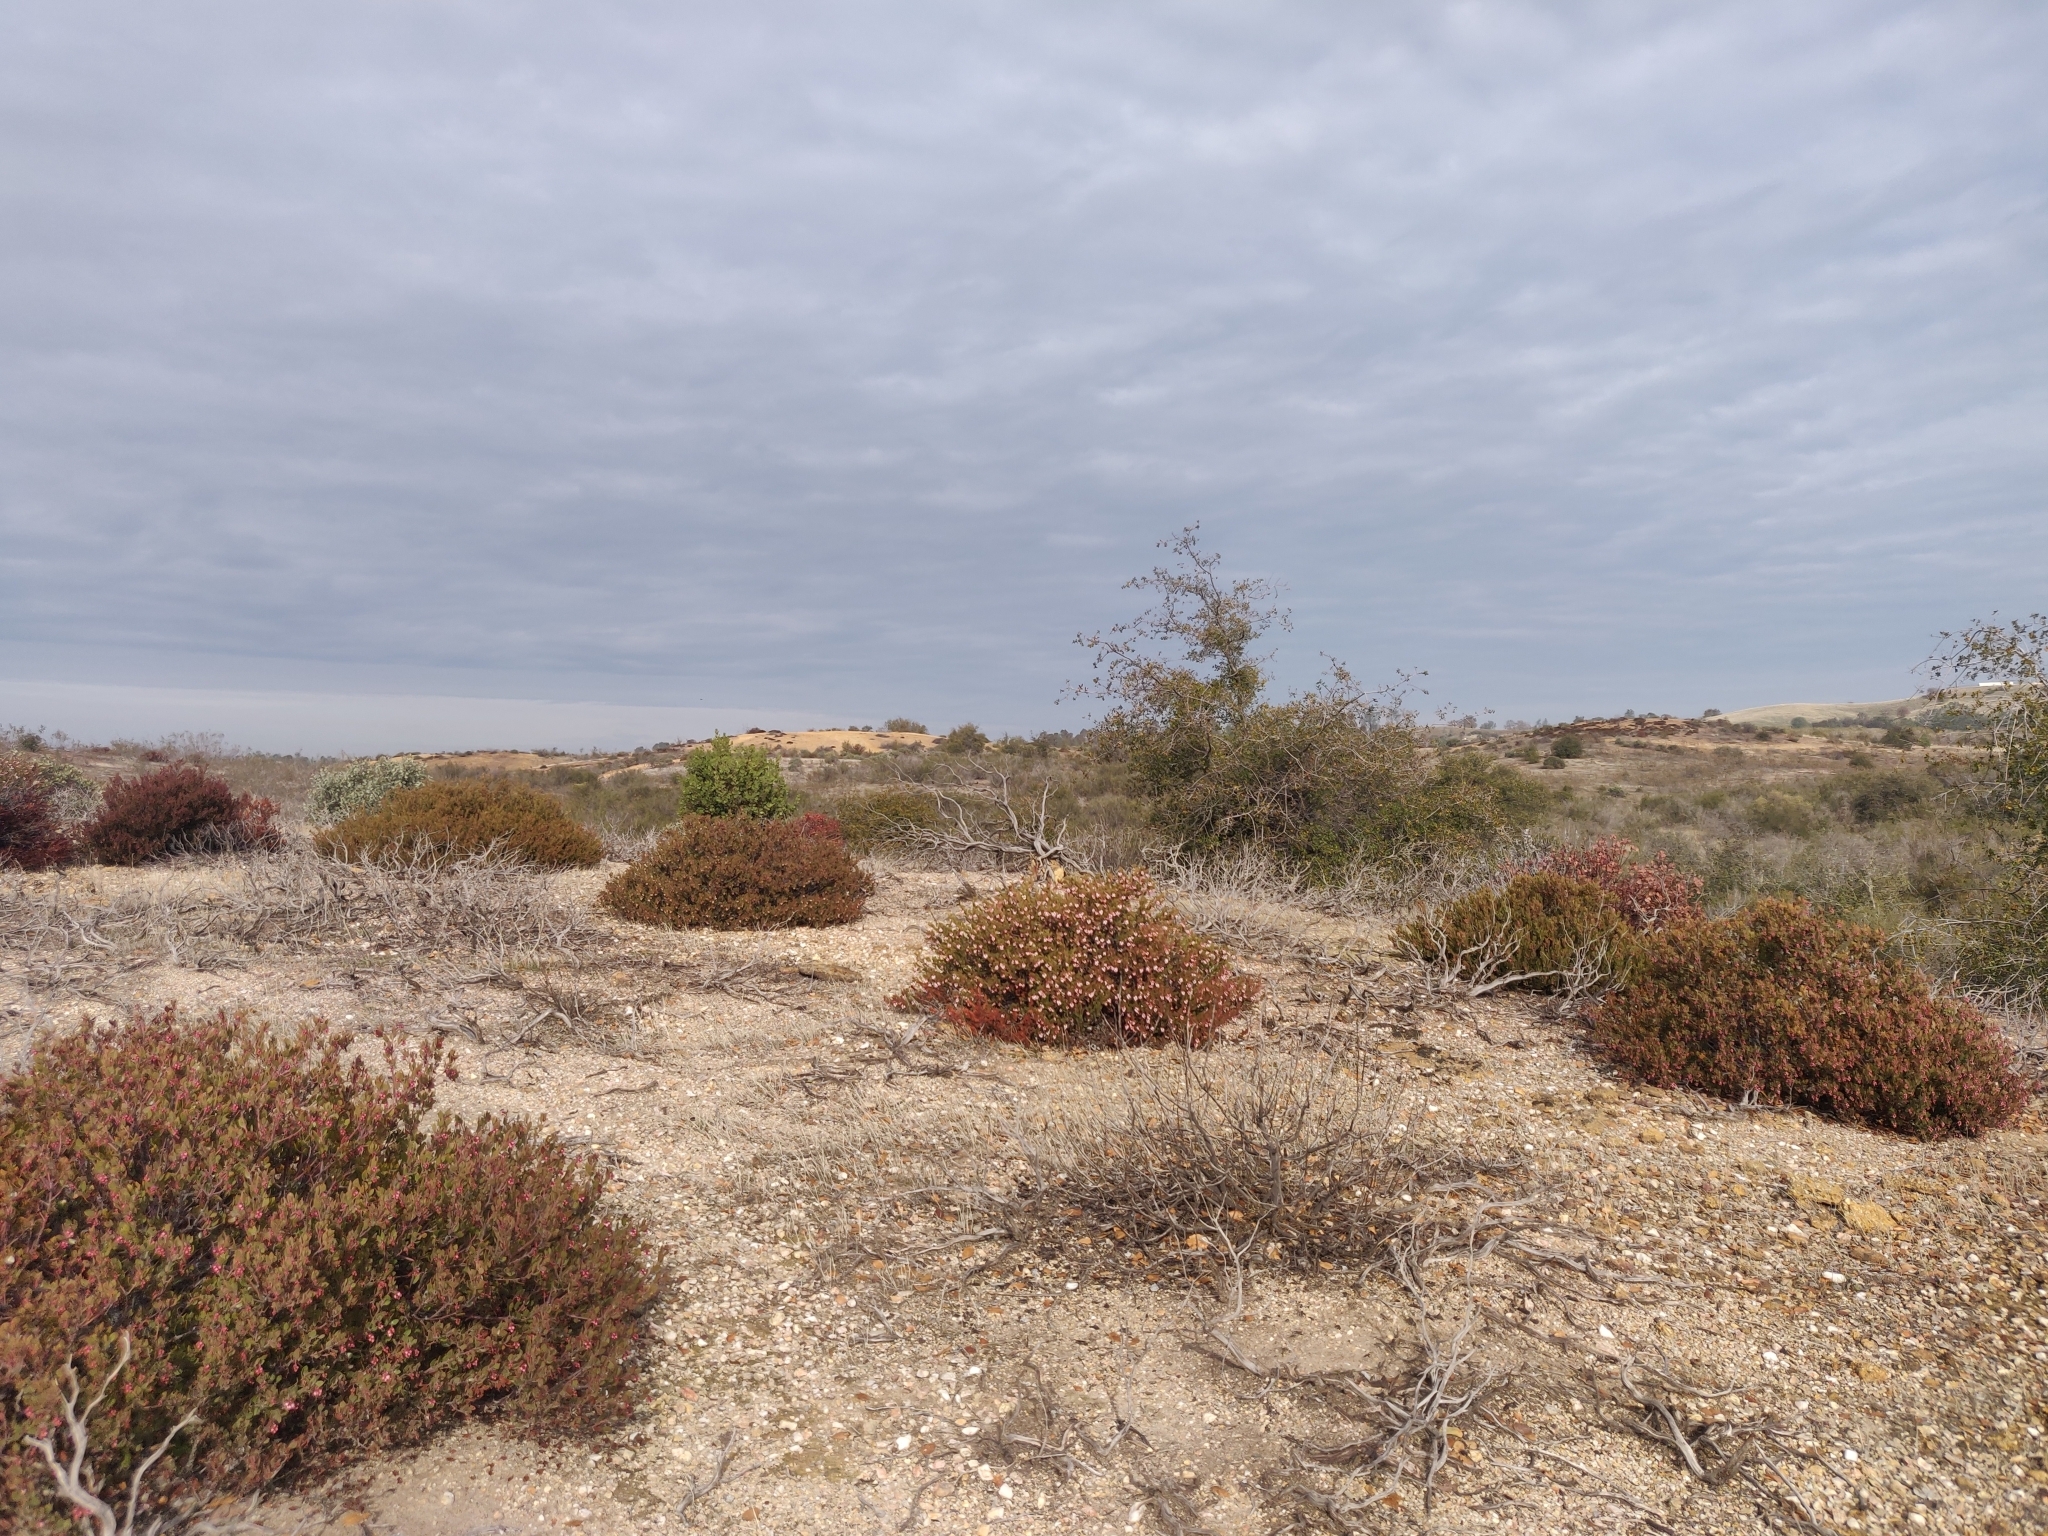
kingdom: Plantae
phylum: Tracheophyta
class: Magnoliopsida
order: Ericales
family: Ericaceae
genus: Arctostaphylos
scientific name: Arctostaphylos myrtifolia
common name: Ione manzanita
